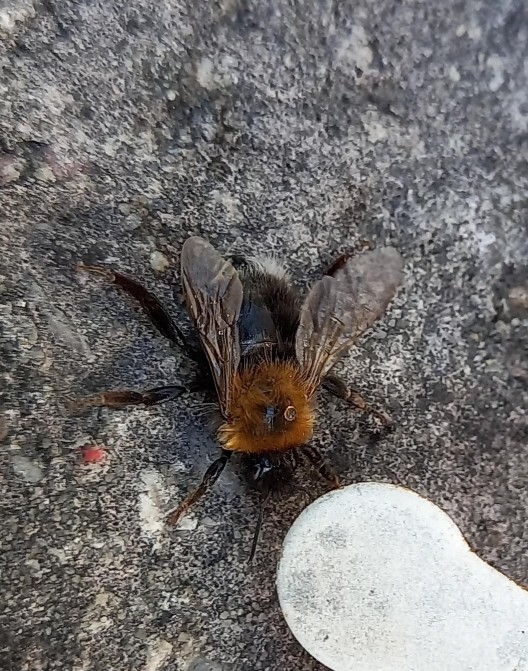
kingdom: Animalia
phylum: Arthropoda
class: Insecta
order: Hymenoptera
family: Apidae
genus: Bombus
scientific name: Bombus hypnorum
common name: New garden bumblebee
